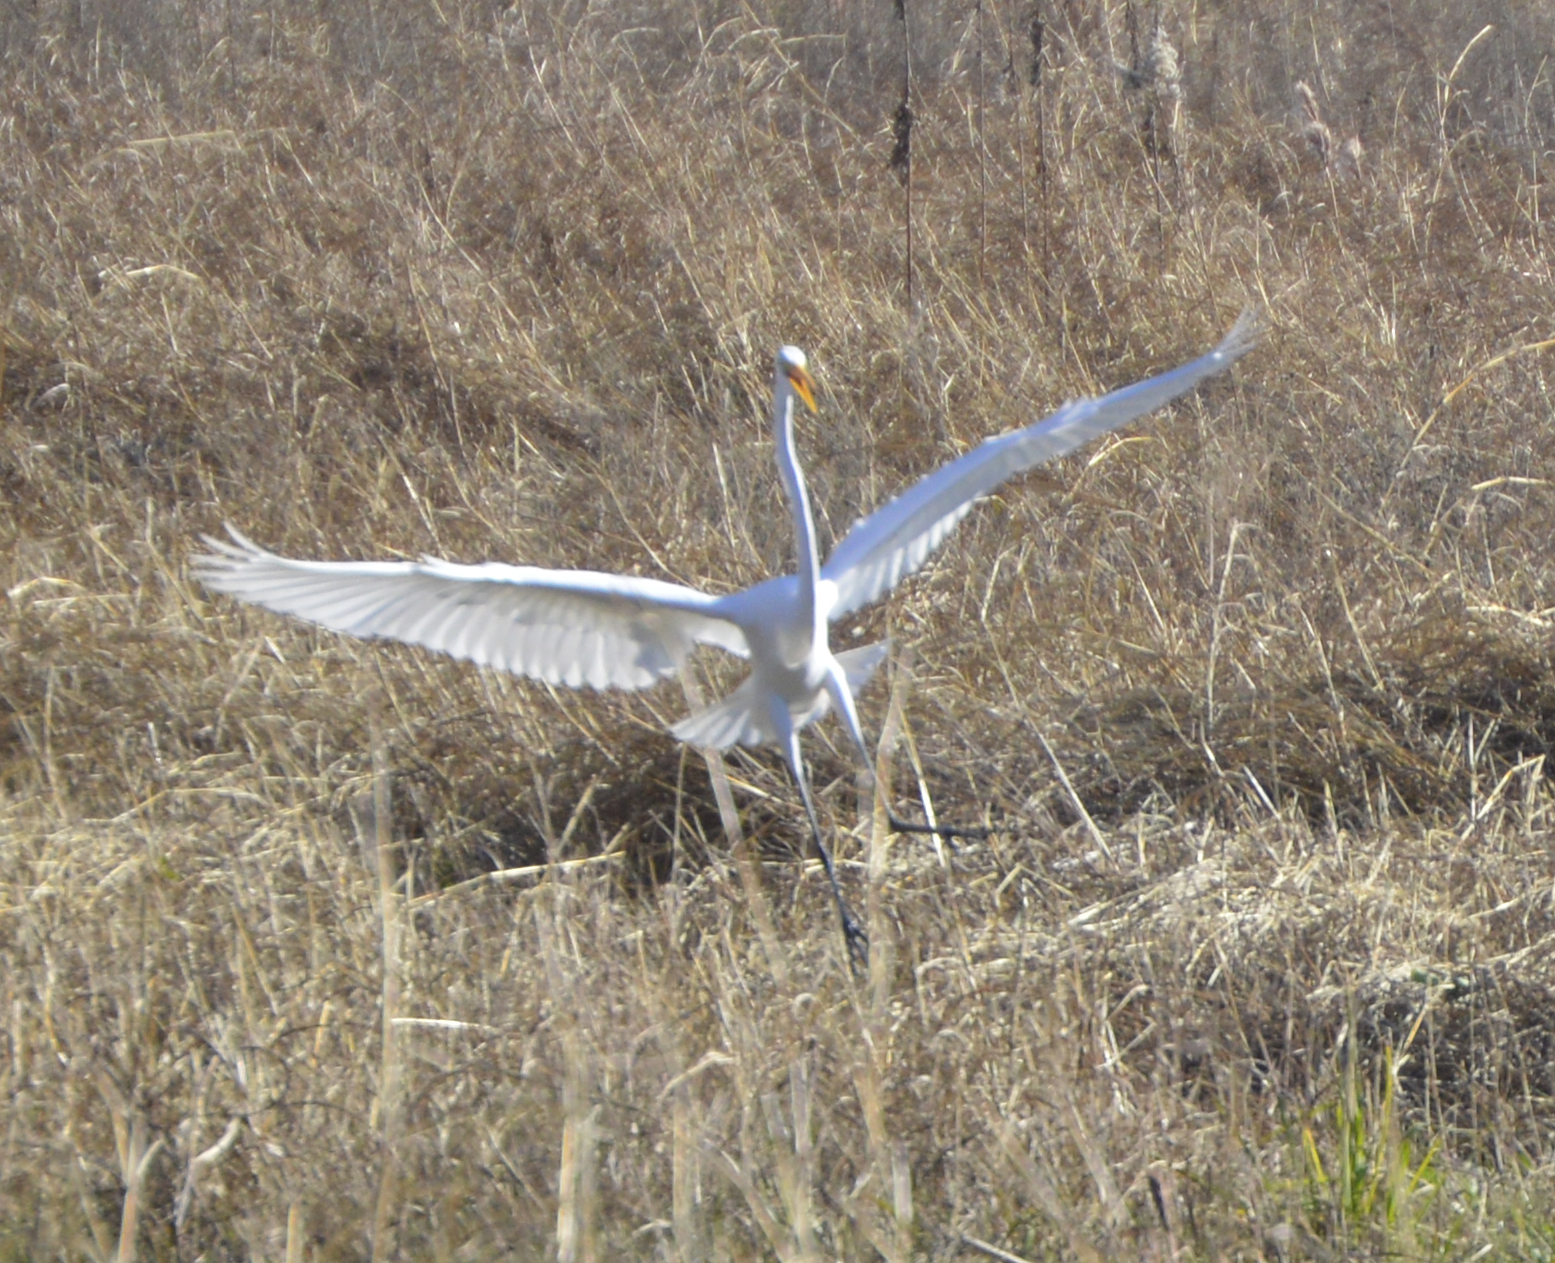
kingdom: Animalia
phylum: Chordata
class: Aves
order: Pelecaniformes
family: Ardeidae
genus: Ardea
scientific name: Ardea alba
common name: Great egret
